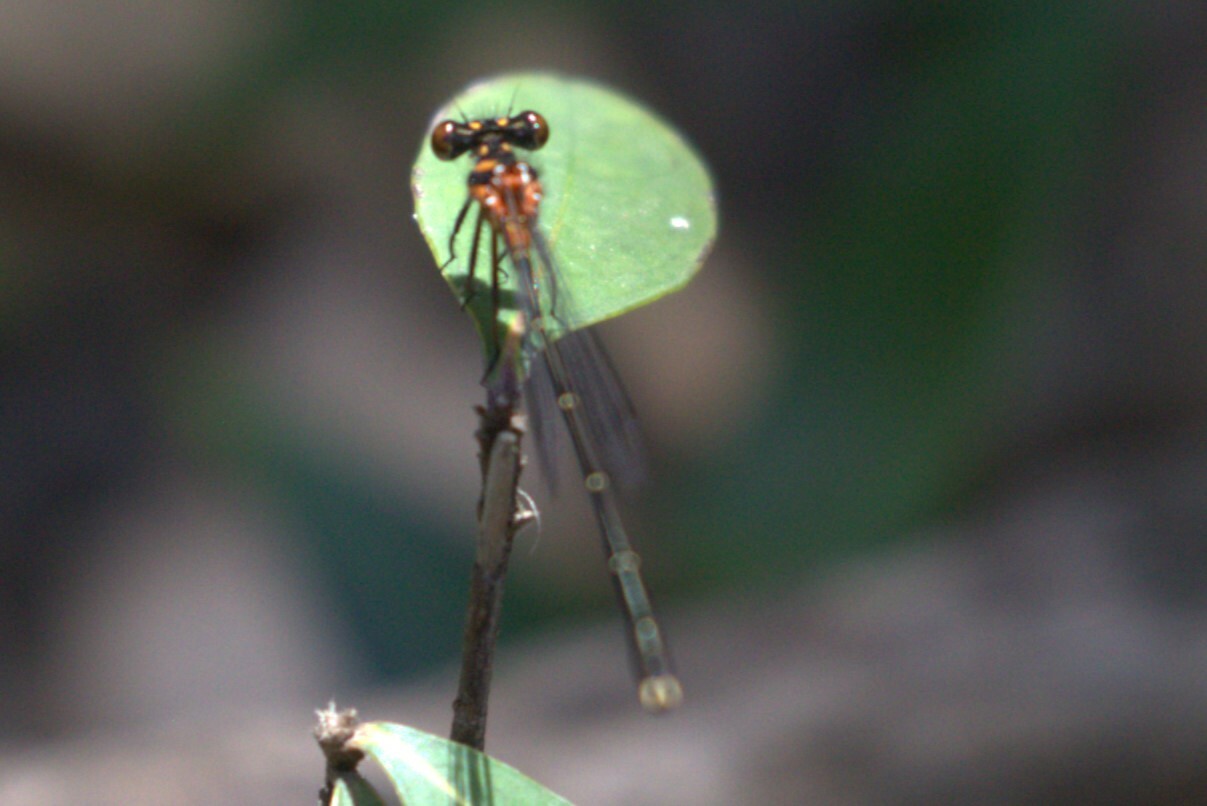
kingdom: Animalia
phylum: Arthropoda
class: Insecta
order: Odonata
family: Platycnemididae
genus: Nososticta
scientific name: Nososticta solida
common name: Orange threadtail
